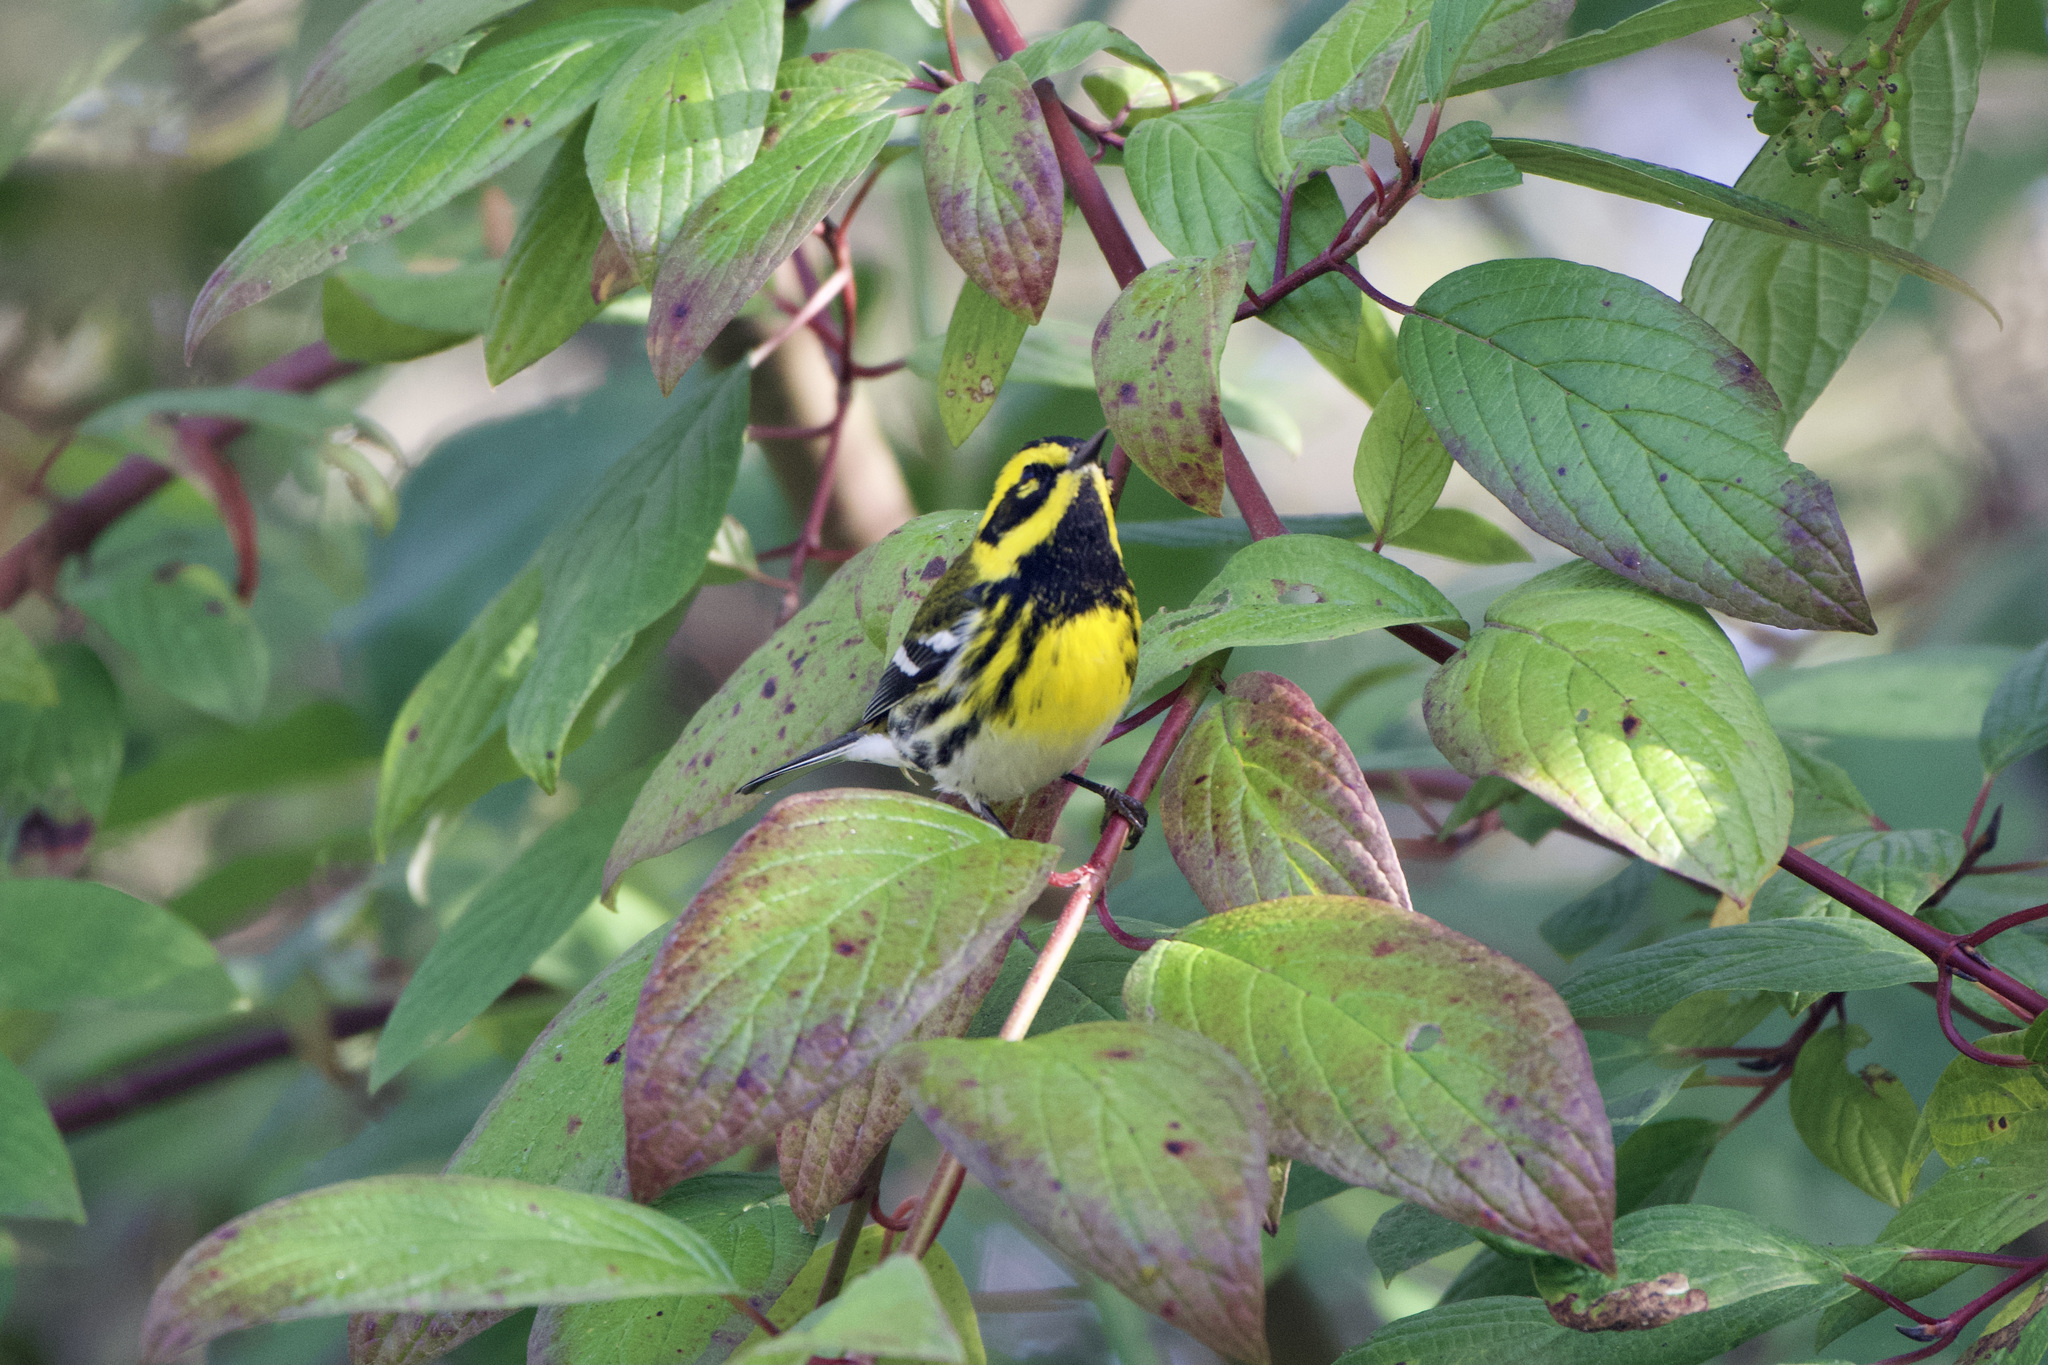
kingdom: Animalia
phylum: Chordata
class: Aves
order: Passeriformes
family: Parulidae
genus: Setophaga
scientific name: Setophaga townsendi
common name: Townsend's warbler
